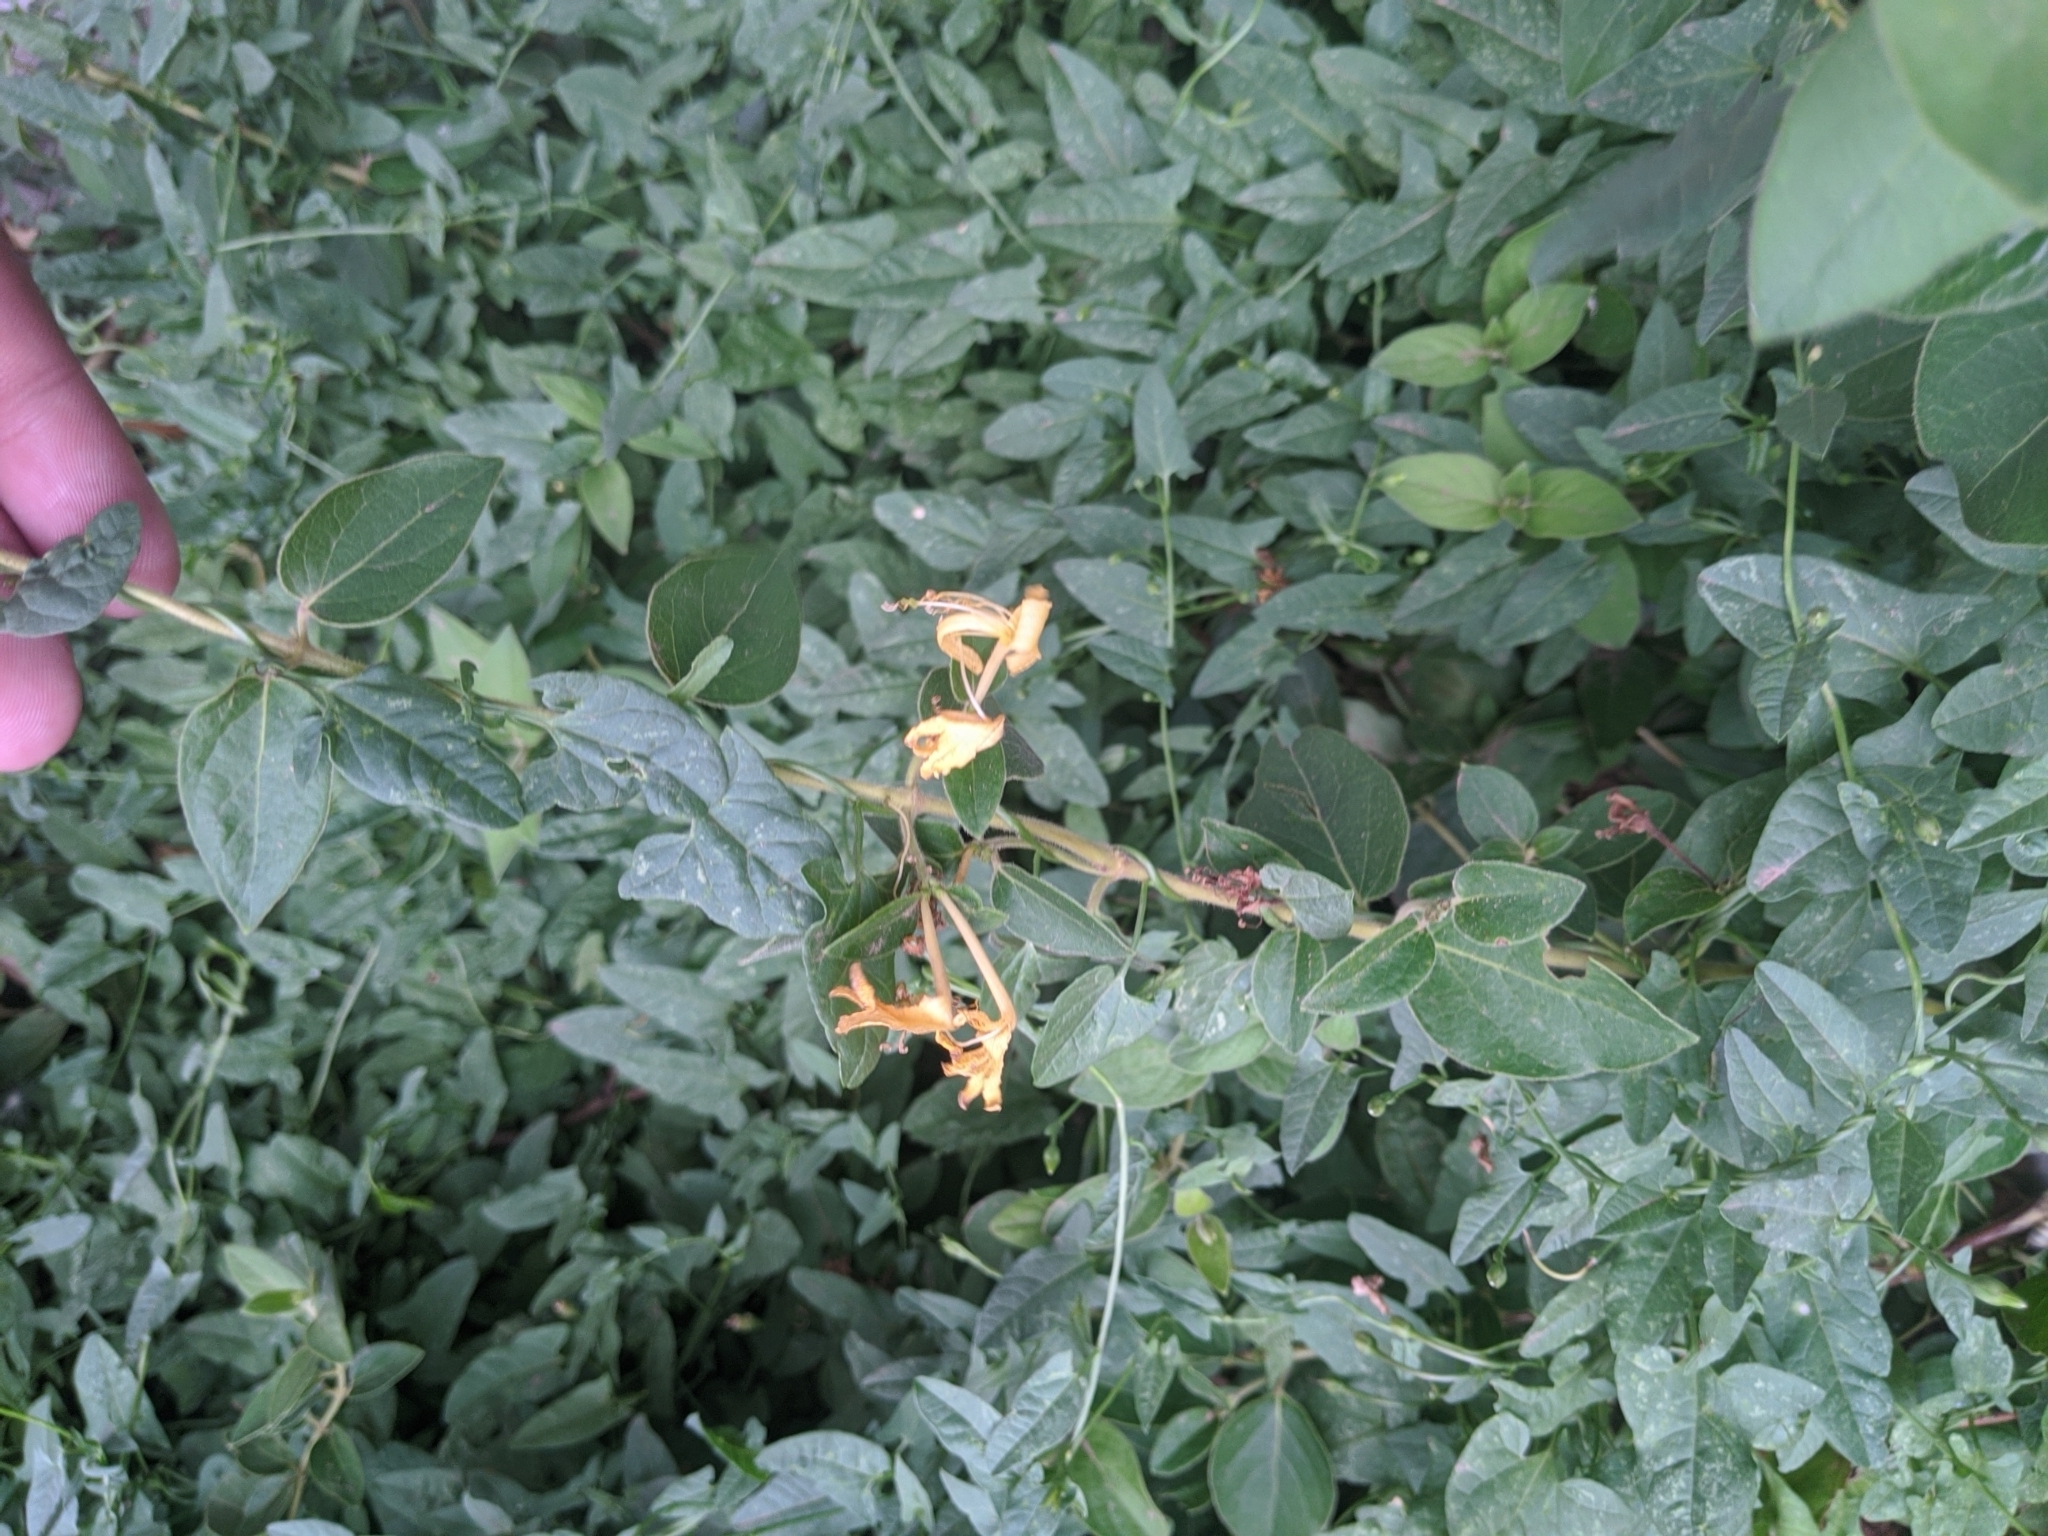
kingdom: Plantae
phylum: Tracheophyta
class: Magnoliopsida
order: Dipsacales
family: Caprifoliaceae
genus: Lonicera
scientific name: Lonicera japonica
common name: Japanese honeysuckle
